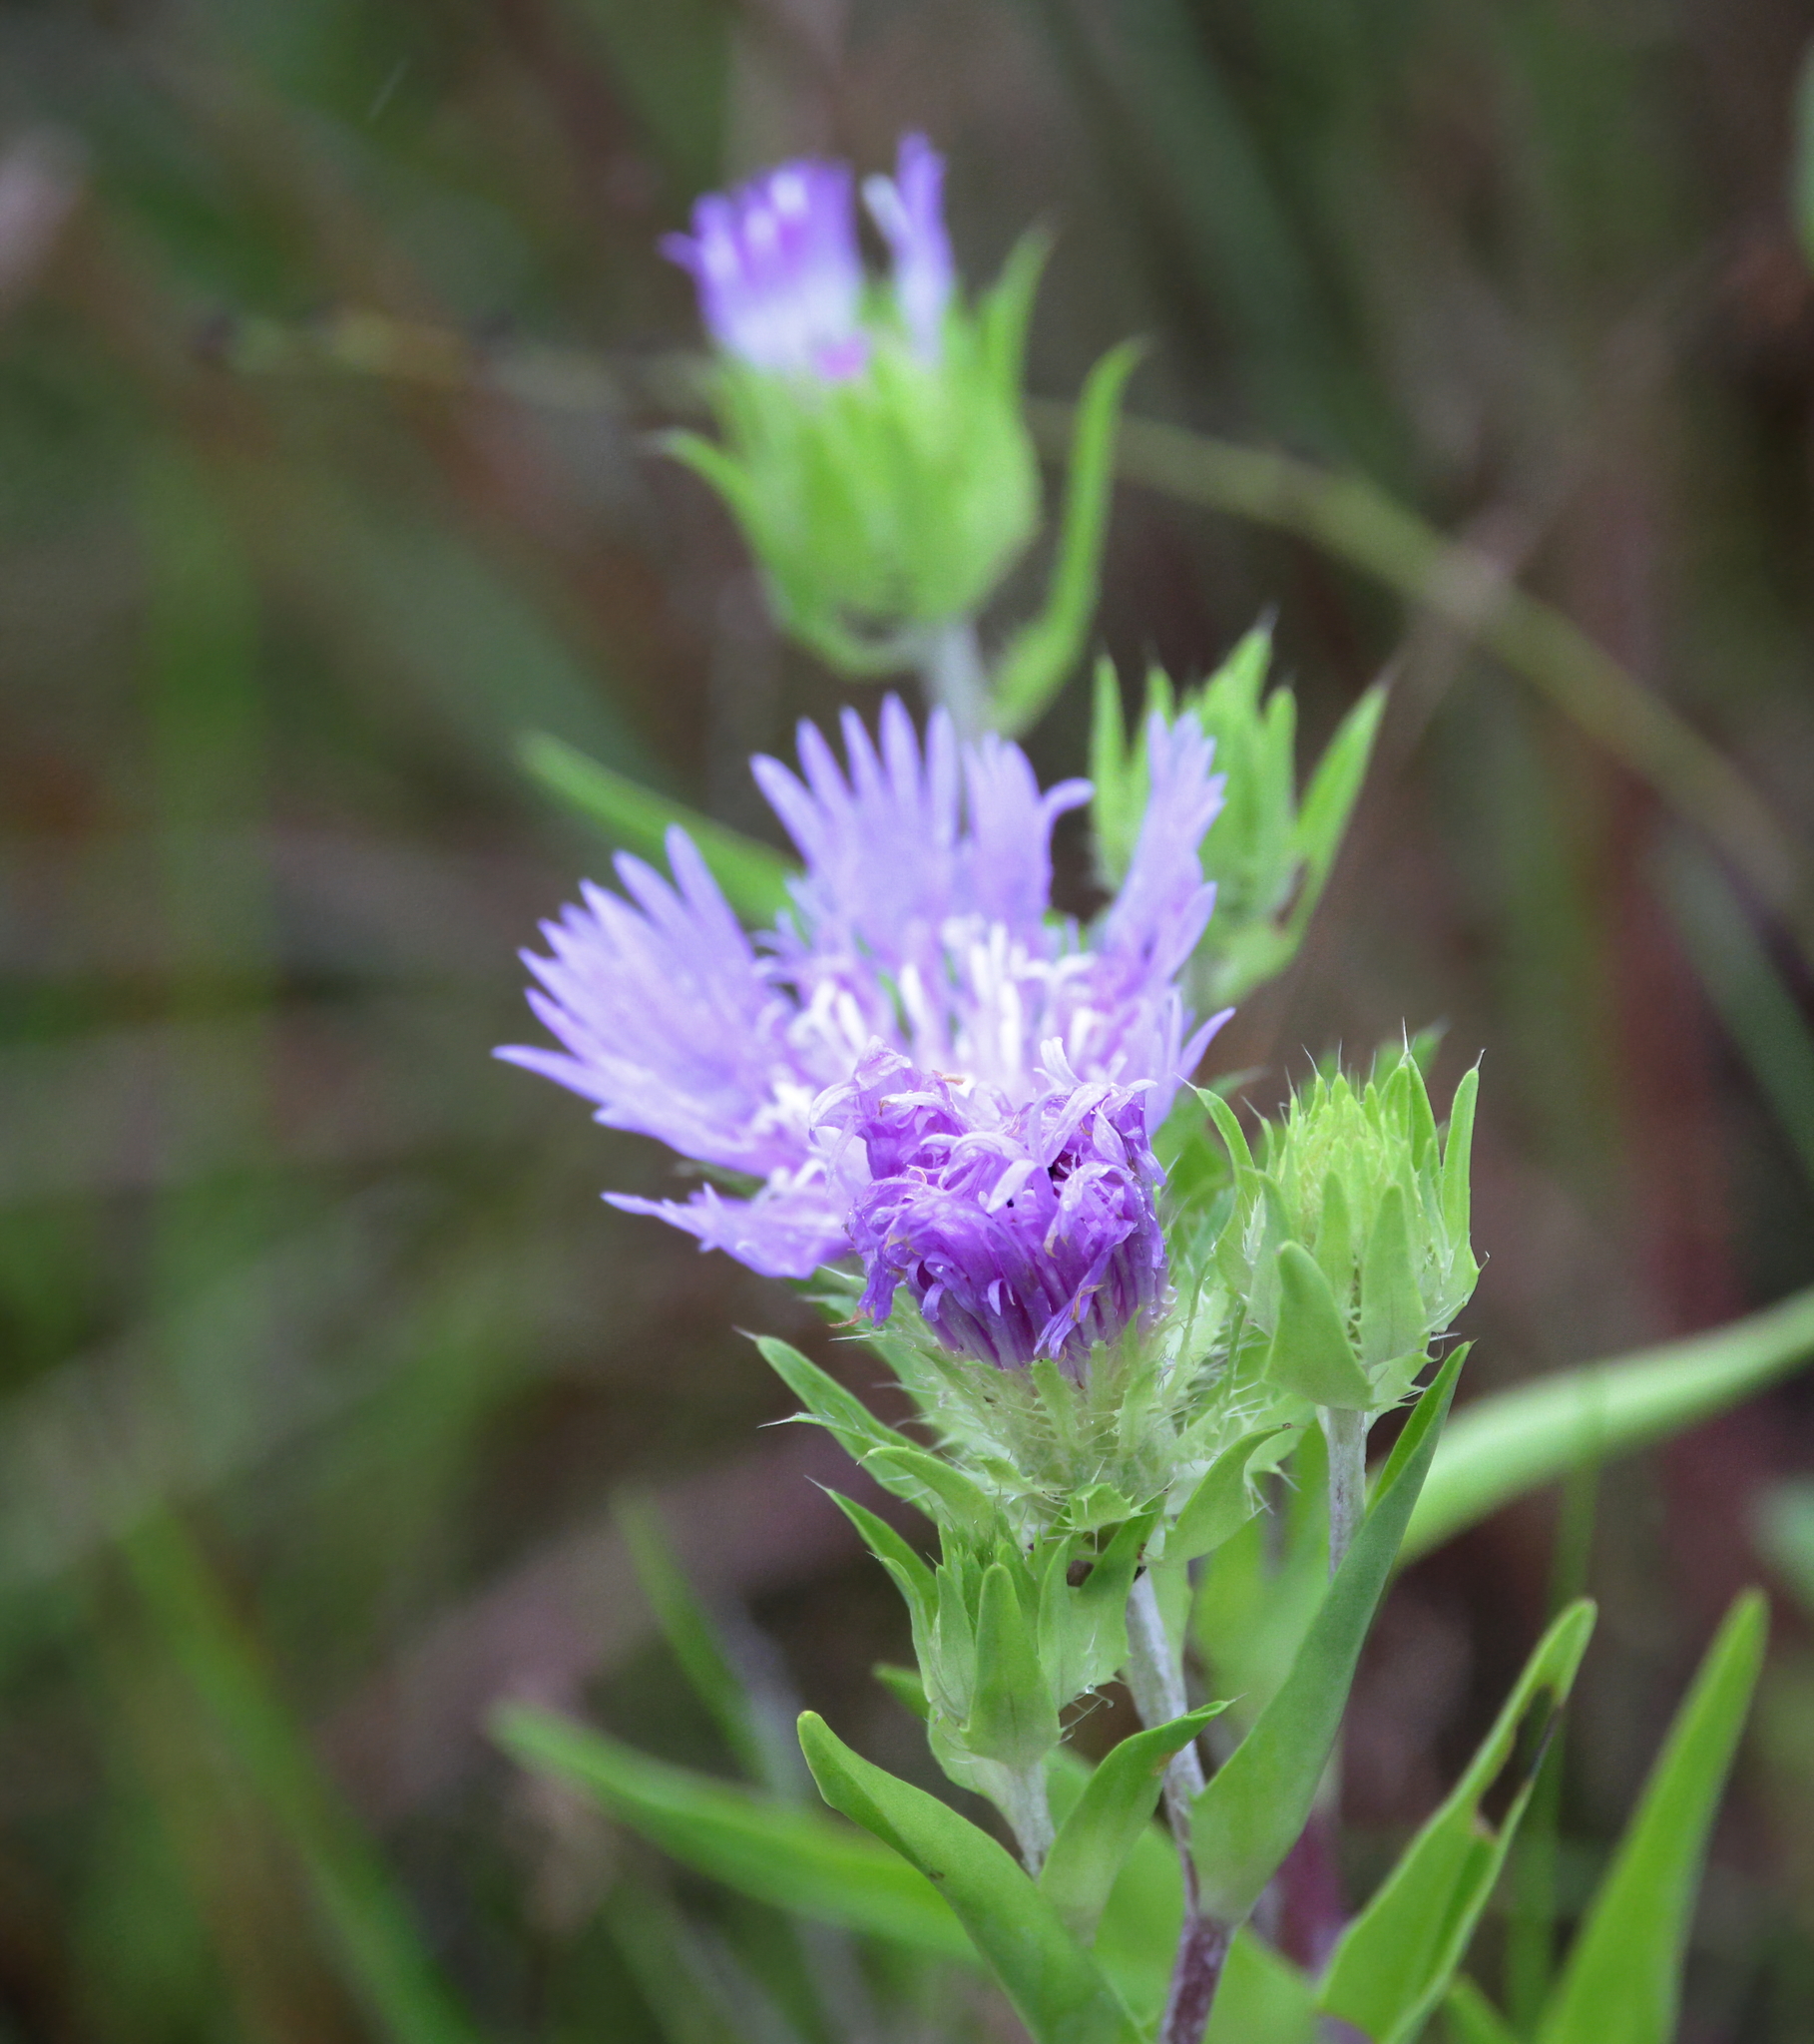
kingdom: Plantae
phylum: Tracheophyta
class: Magnoliopsida
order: Asterales
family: Asteraceae
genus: Stokesia
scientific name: Stokesia laevis
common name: Stokes'-aster
